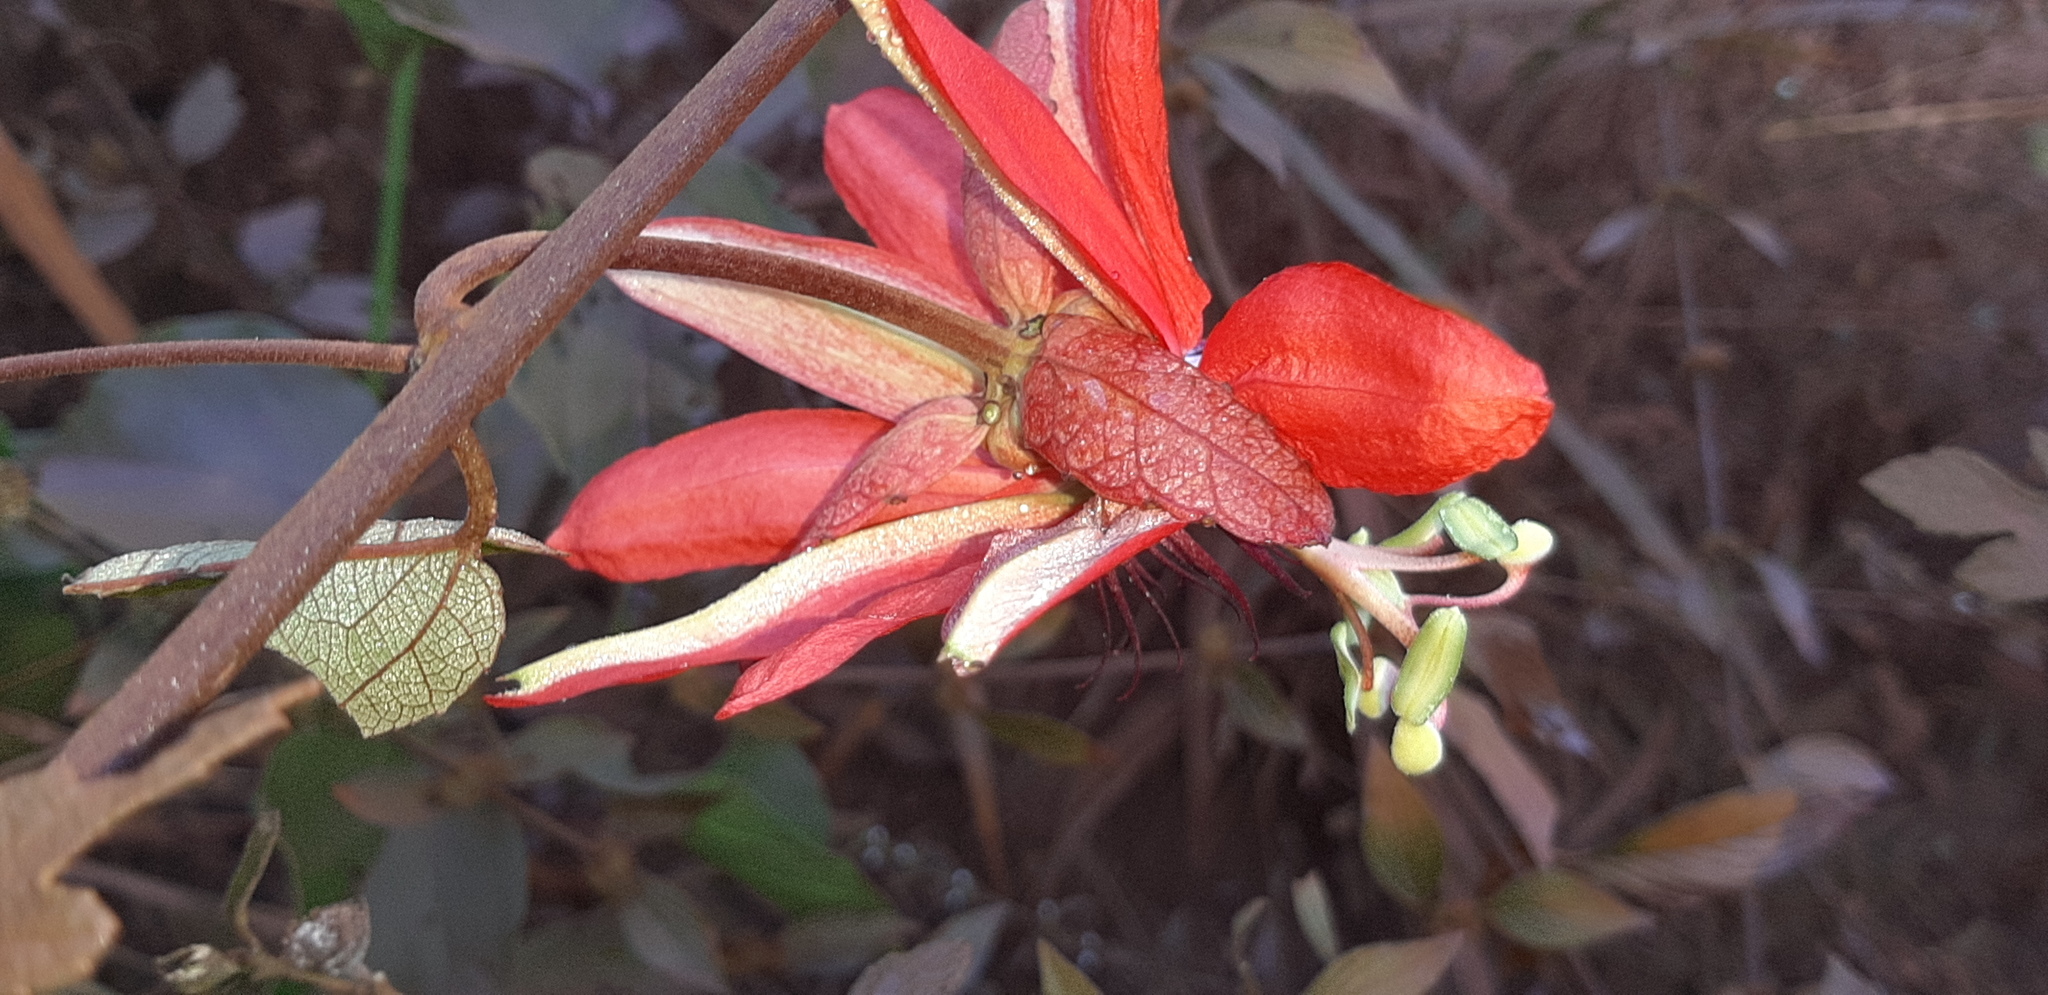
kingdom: Plantae
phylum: Tracheophyta
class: Magnoliopsida
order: Malpighiales
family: Passifloraceae
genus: Passiflora
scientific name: Passiflora miniata
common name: Red granadilla
